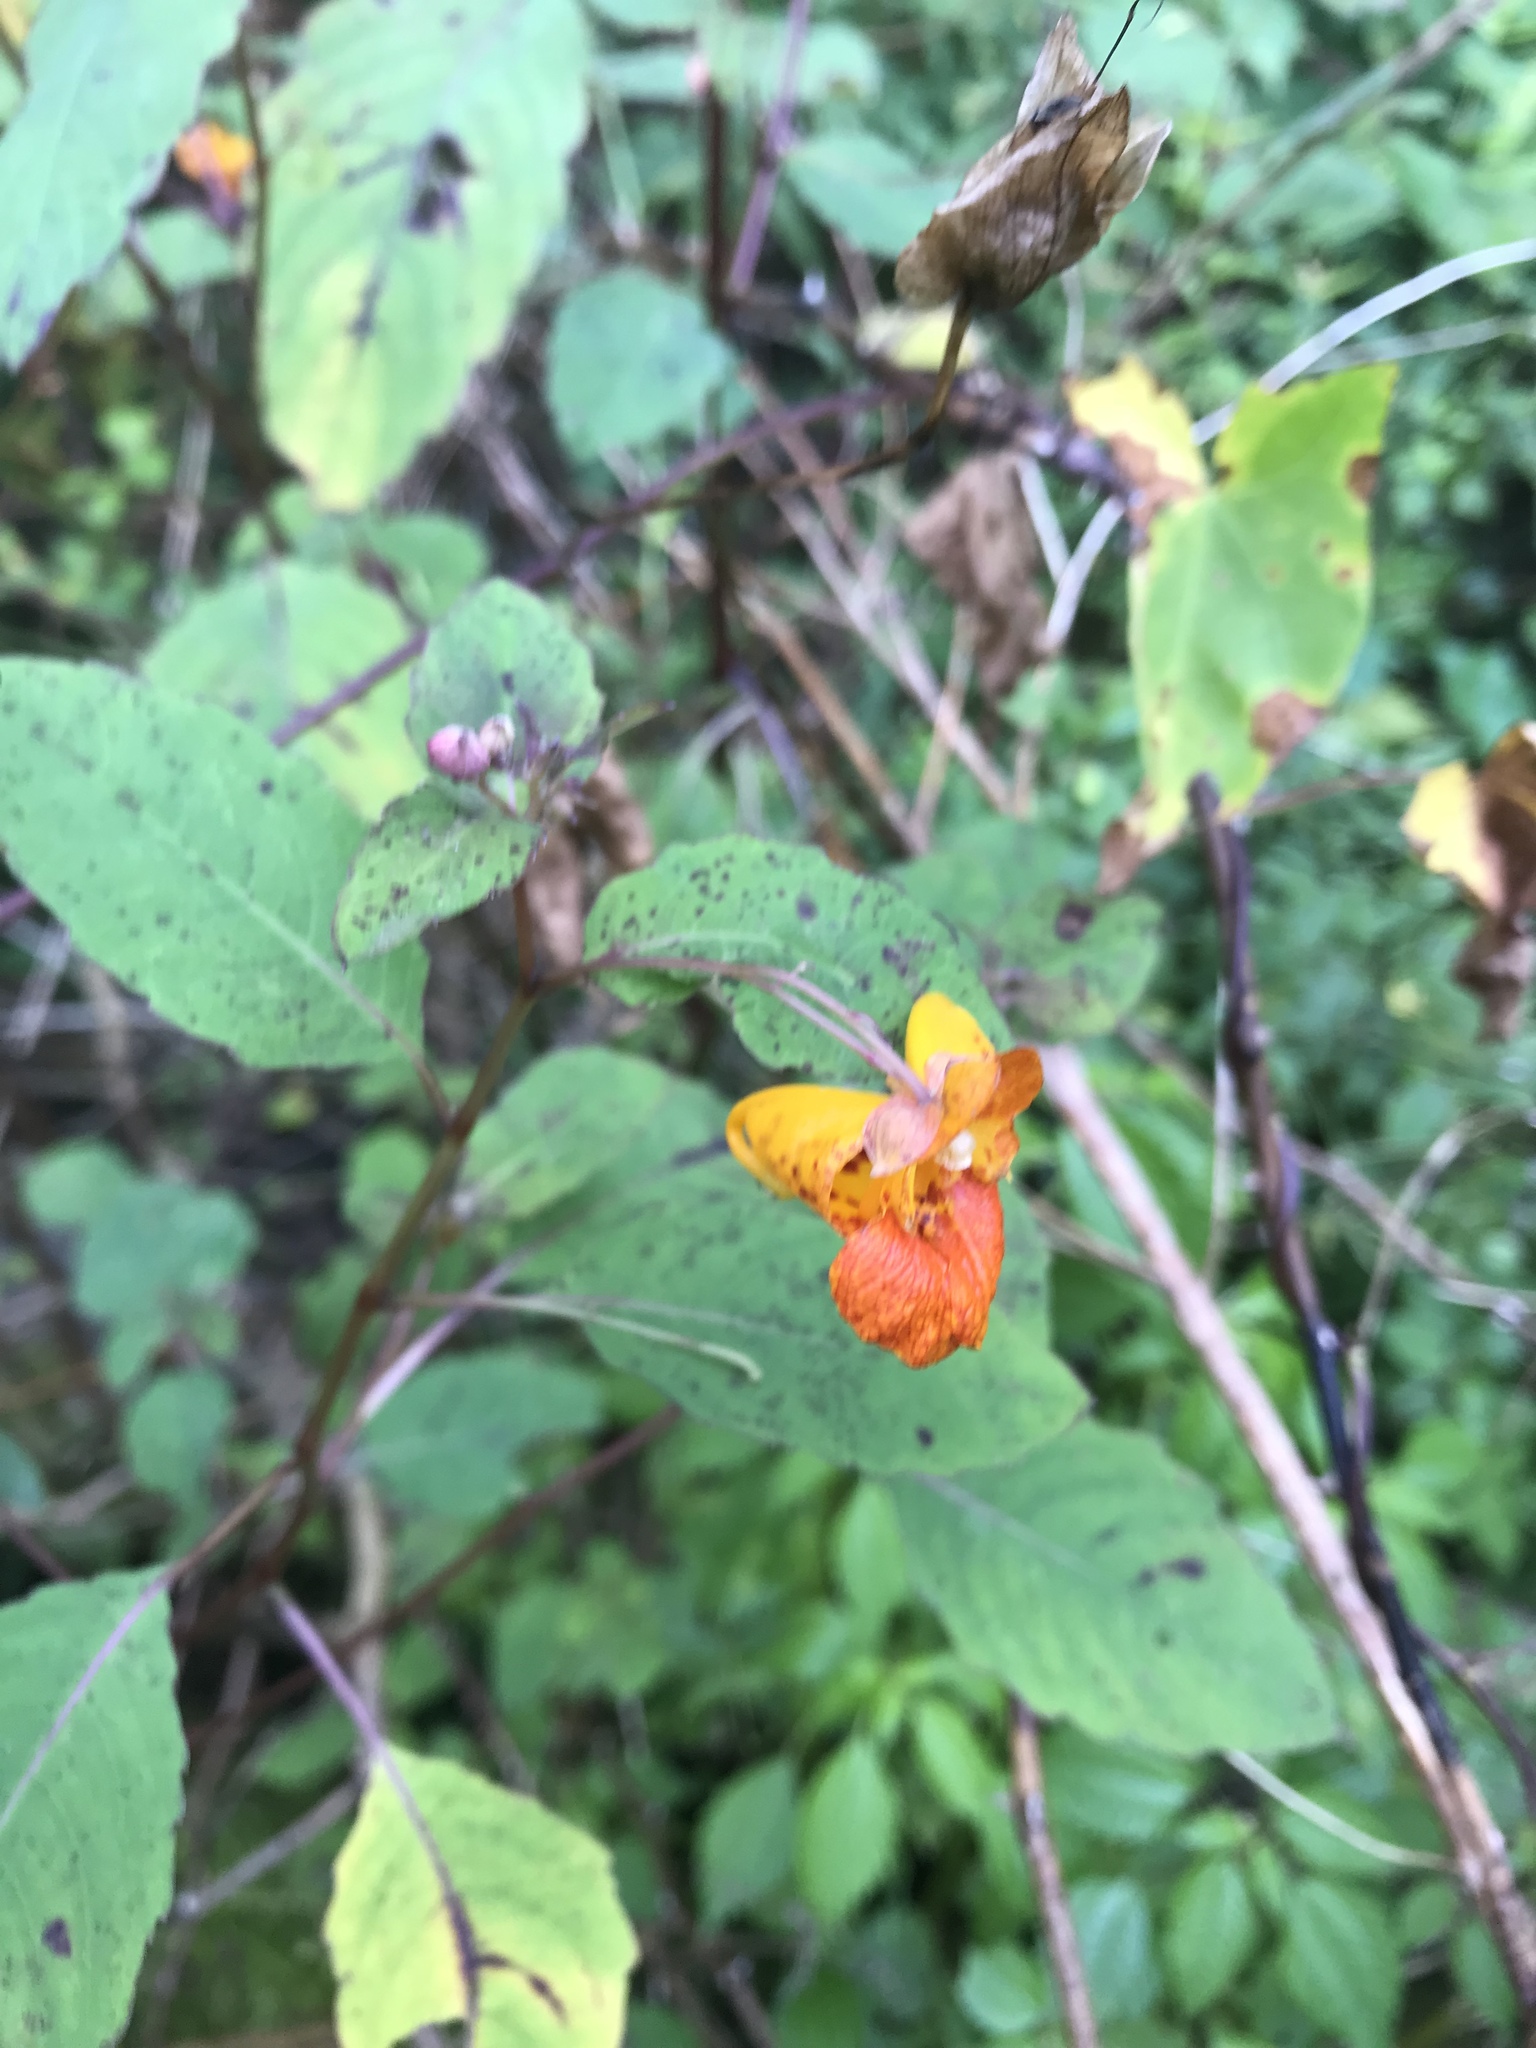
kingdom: Plantae
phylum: Tracheophyta
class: Magnoliopsida
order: Ericales
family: Balsaminaceae
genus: Impatiens
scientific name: Impatiens capensis
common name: Orange balsam
